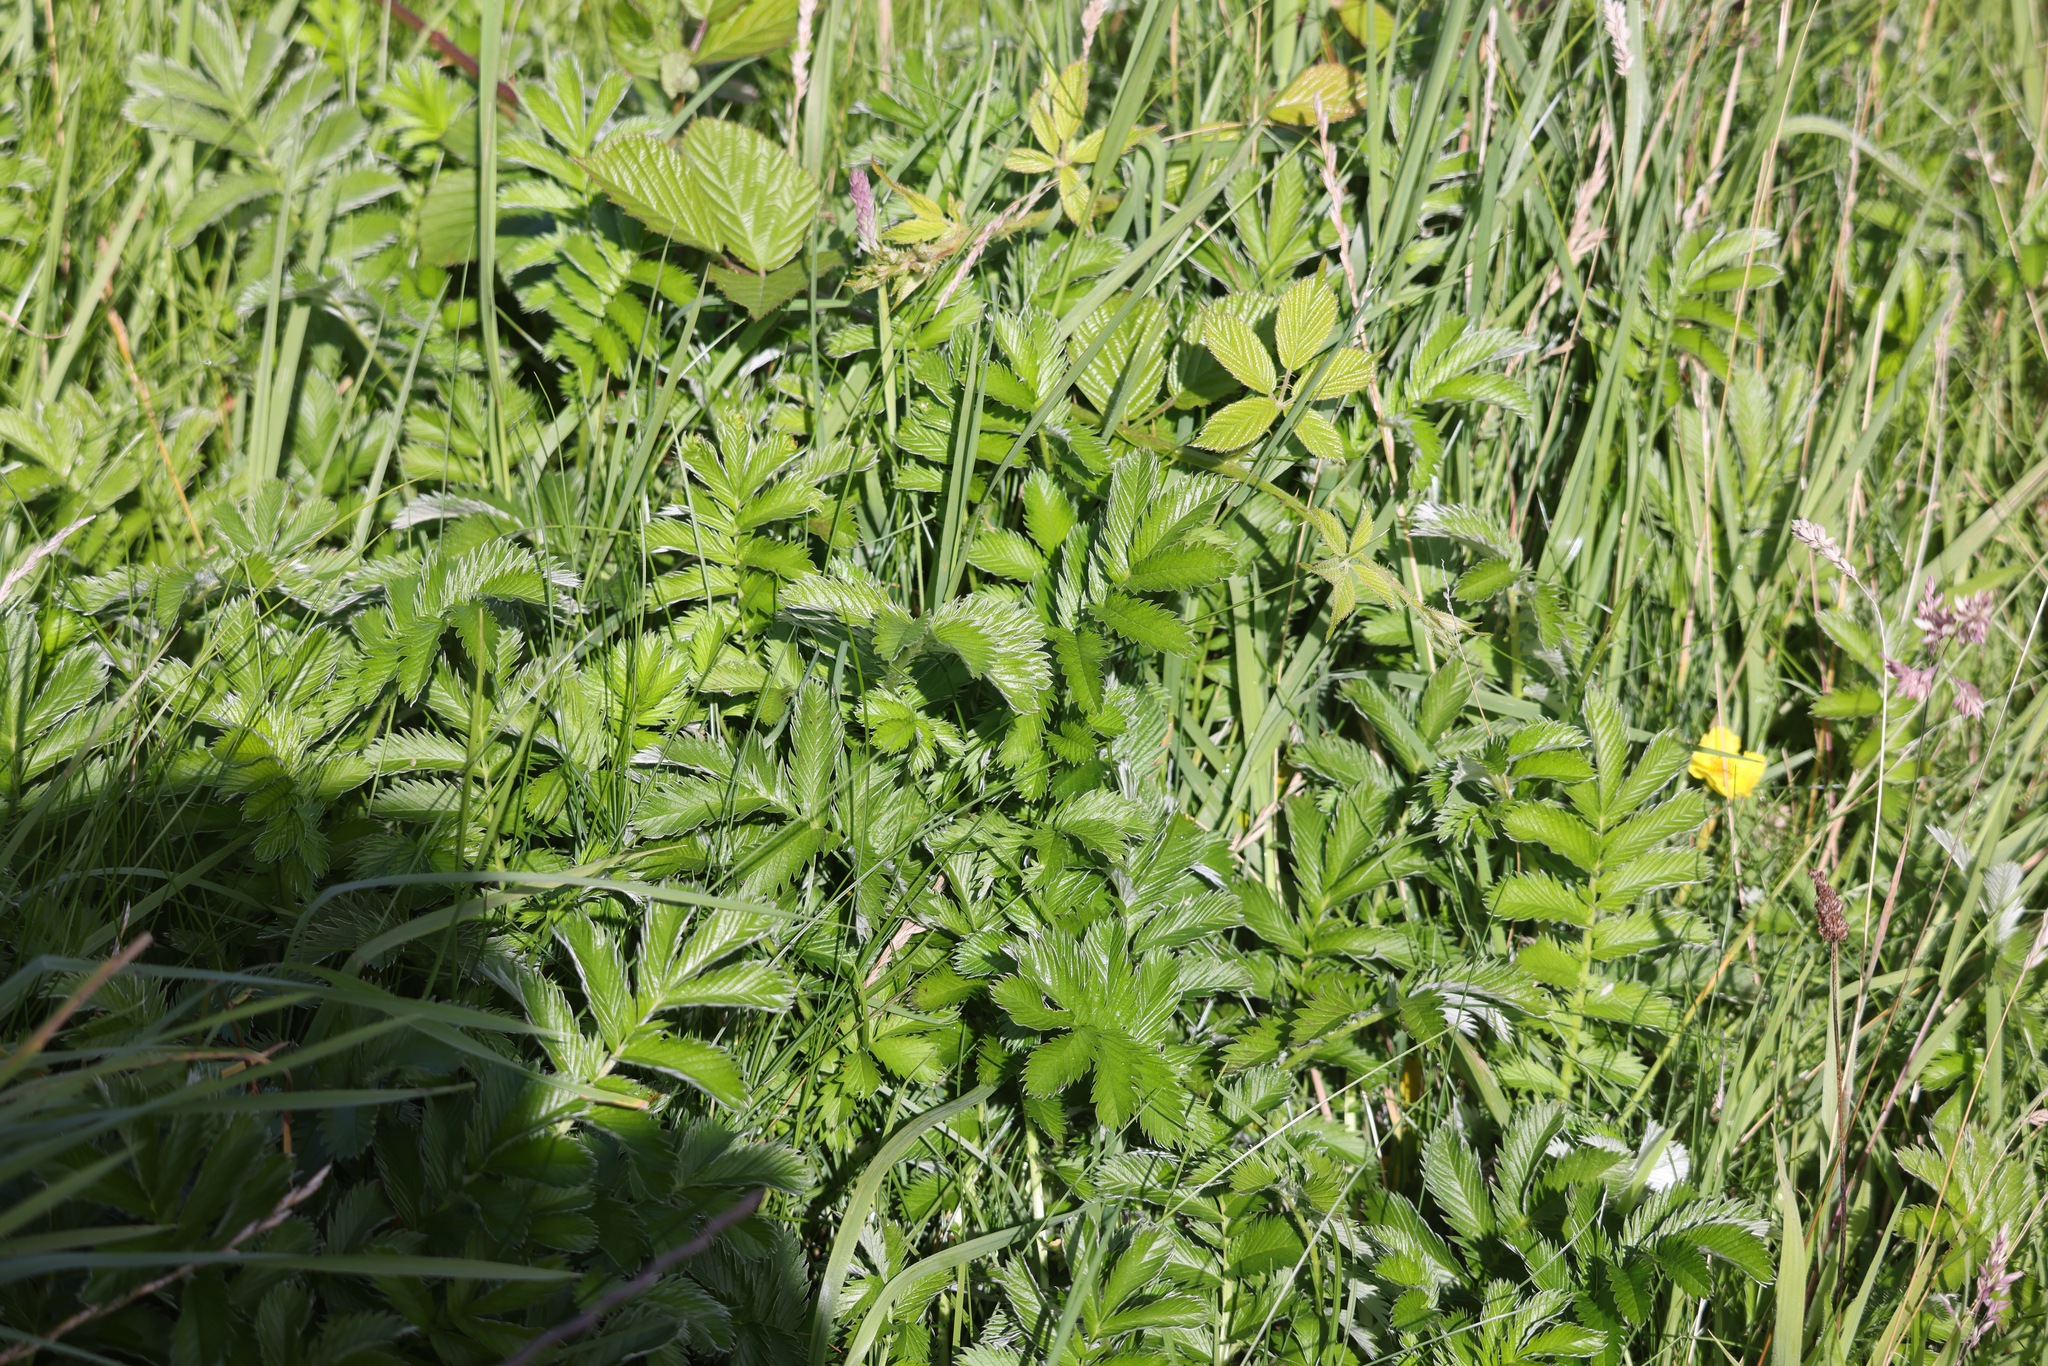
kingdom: Plantae
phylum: Tracheophyta
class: Magnoliopsida
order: Rosales
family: Rosaceae
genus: Argentina
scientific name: Argentina anserina
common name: Common silverweed
